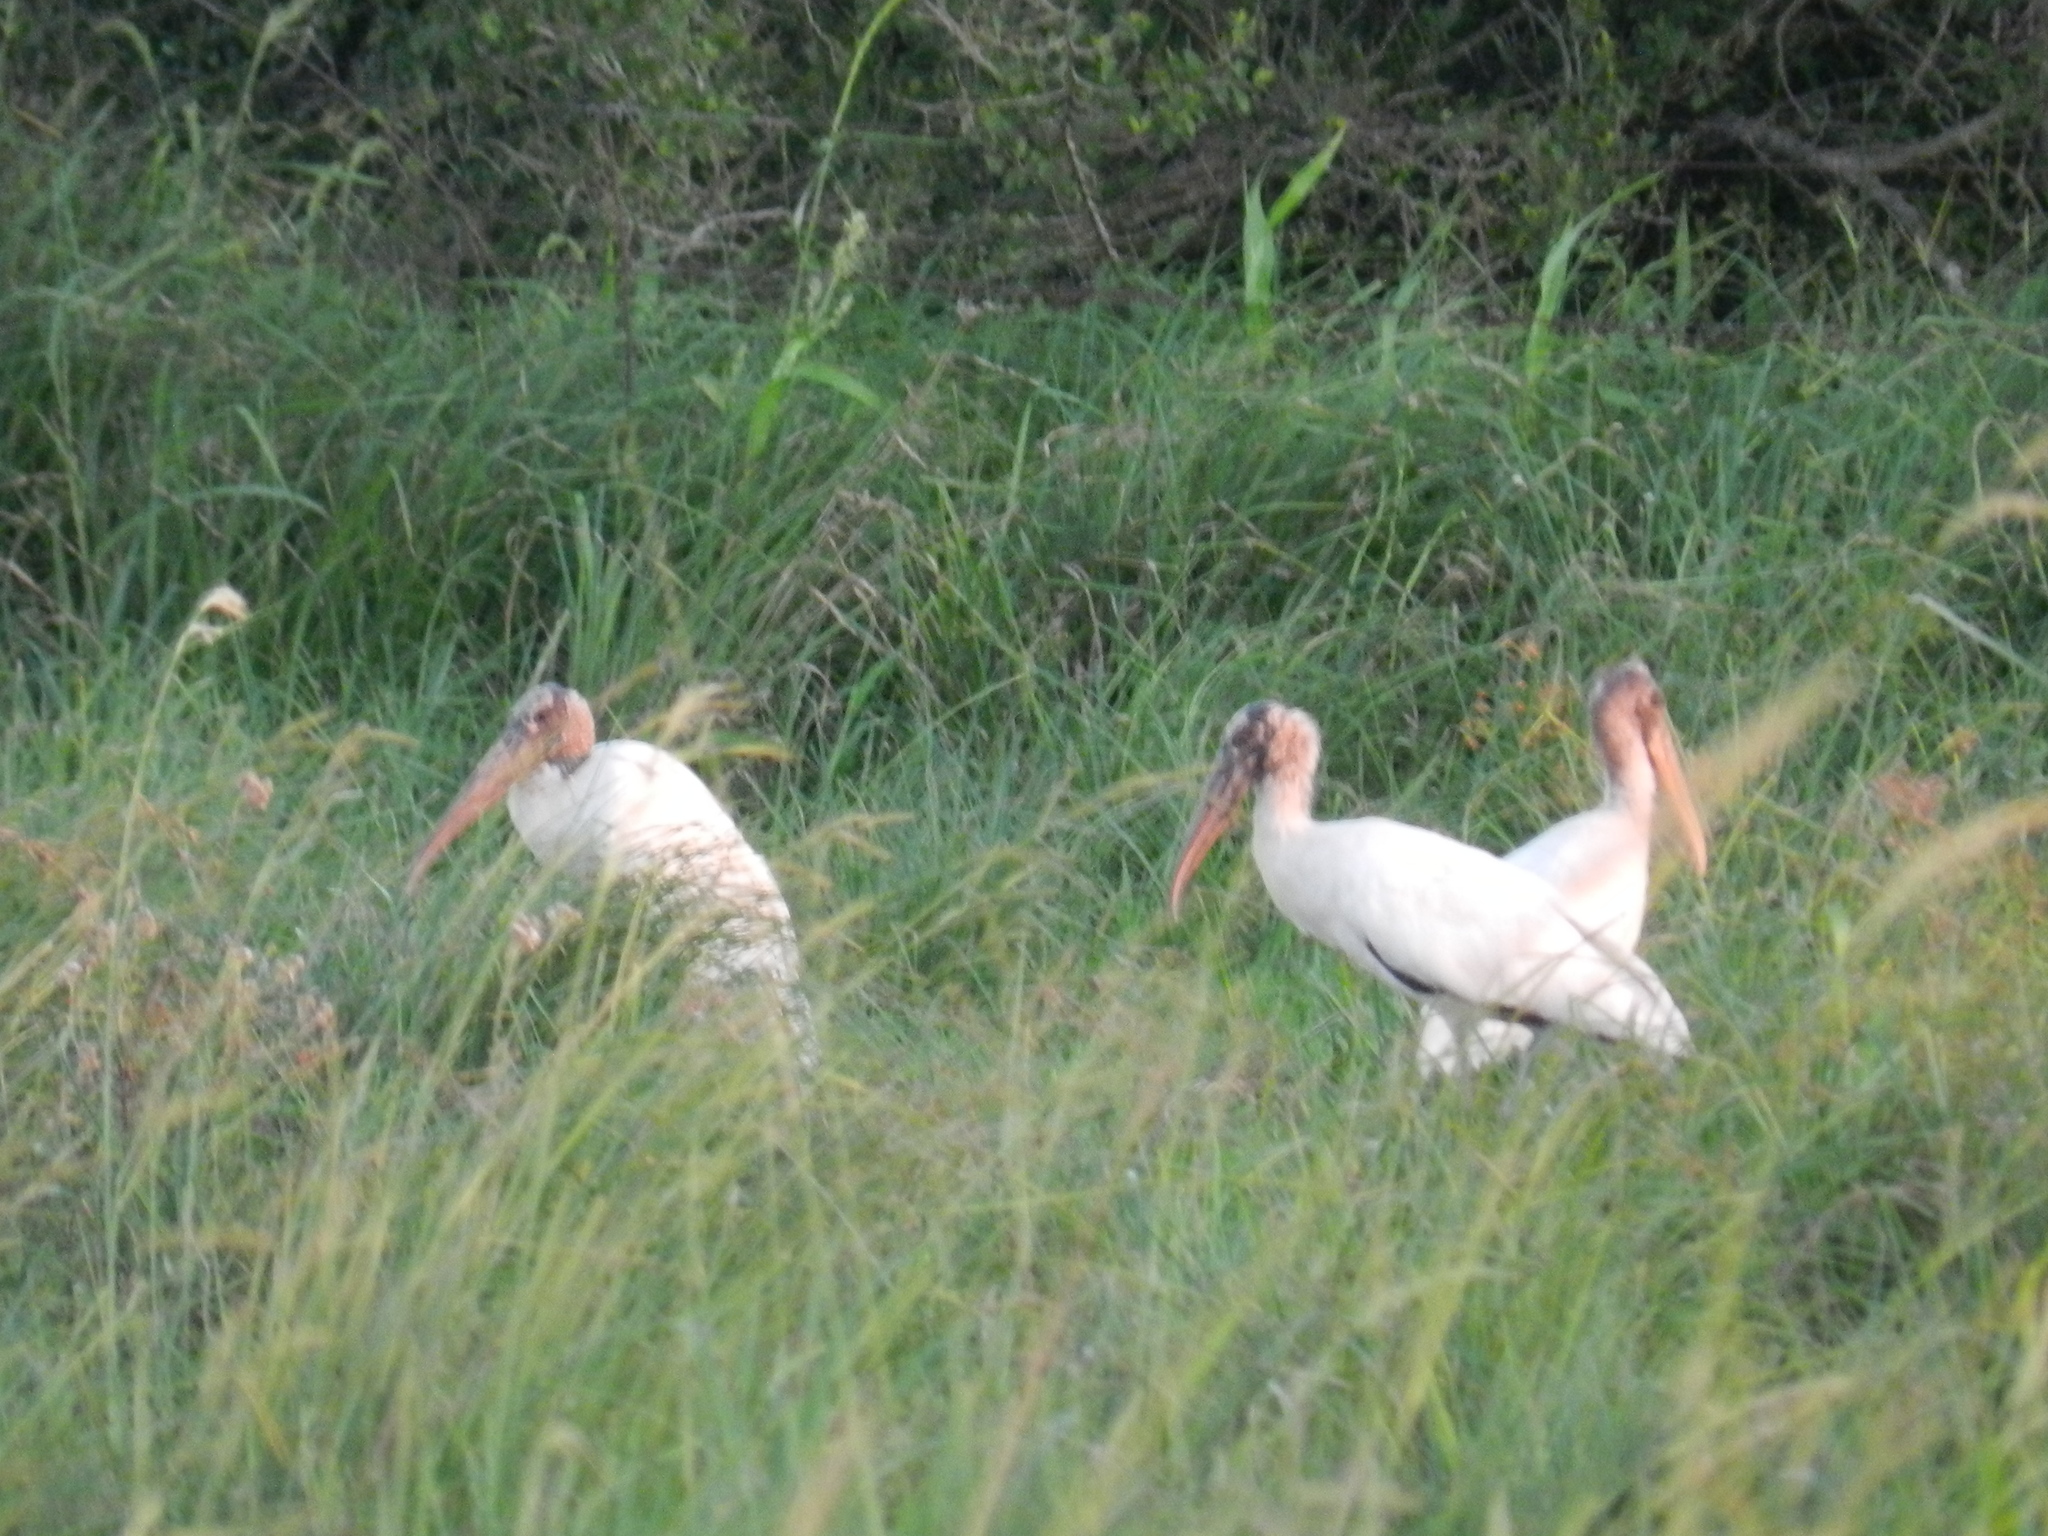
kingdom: Animalia
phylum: Chordata
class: Aves
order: Ciconiiformes
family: Ciconiidae
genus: Mycteria
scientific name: Mycteria americana
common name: Wood stork
